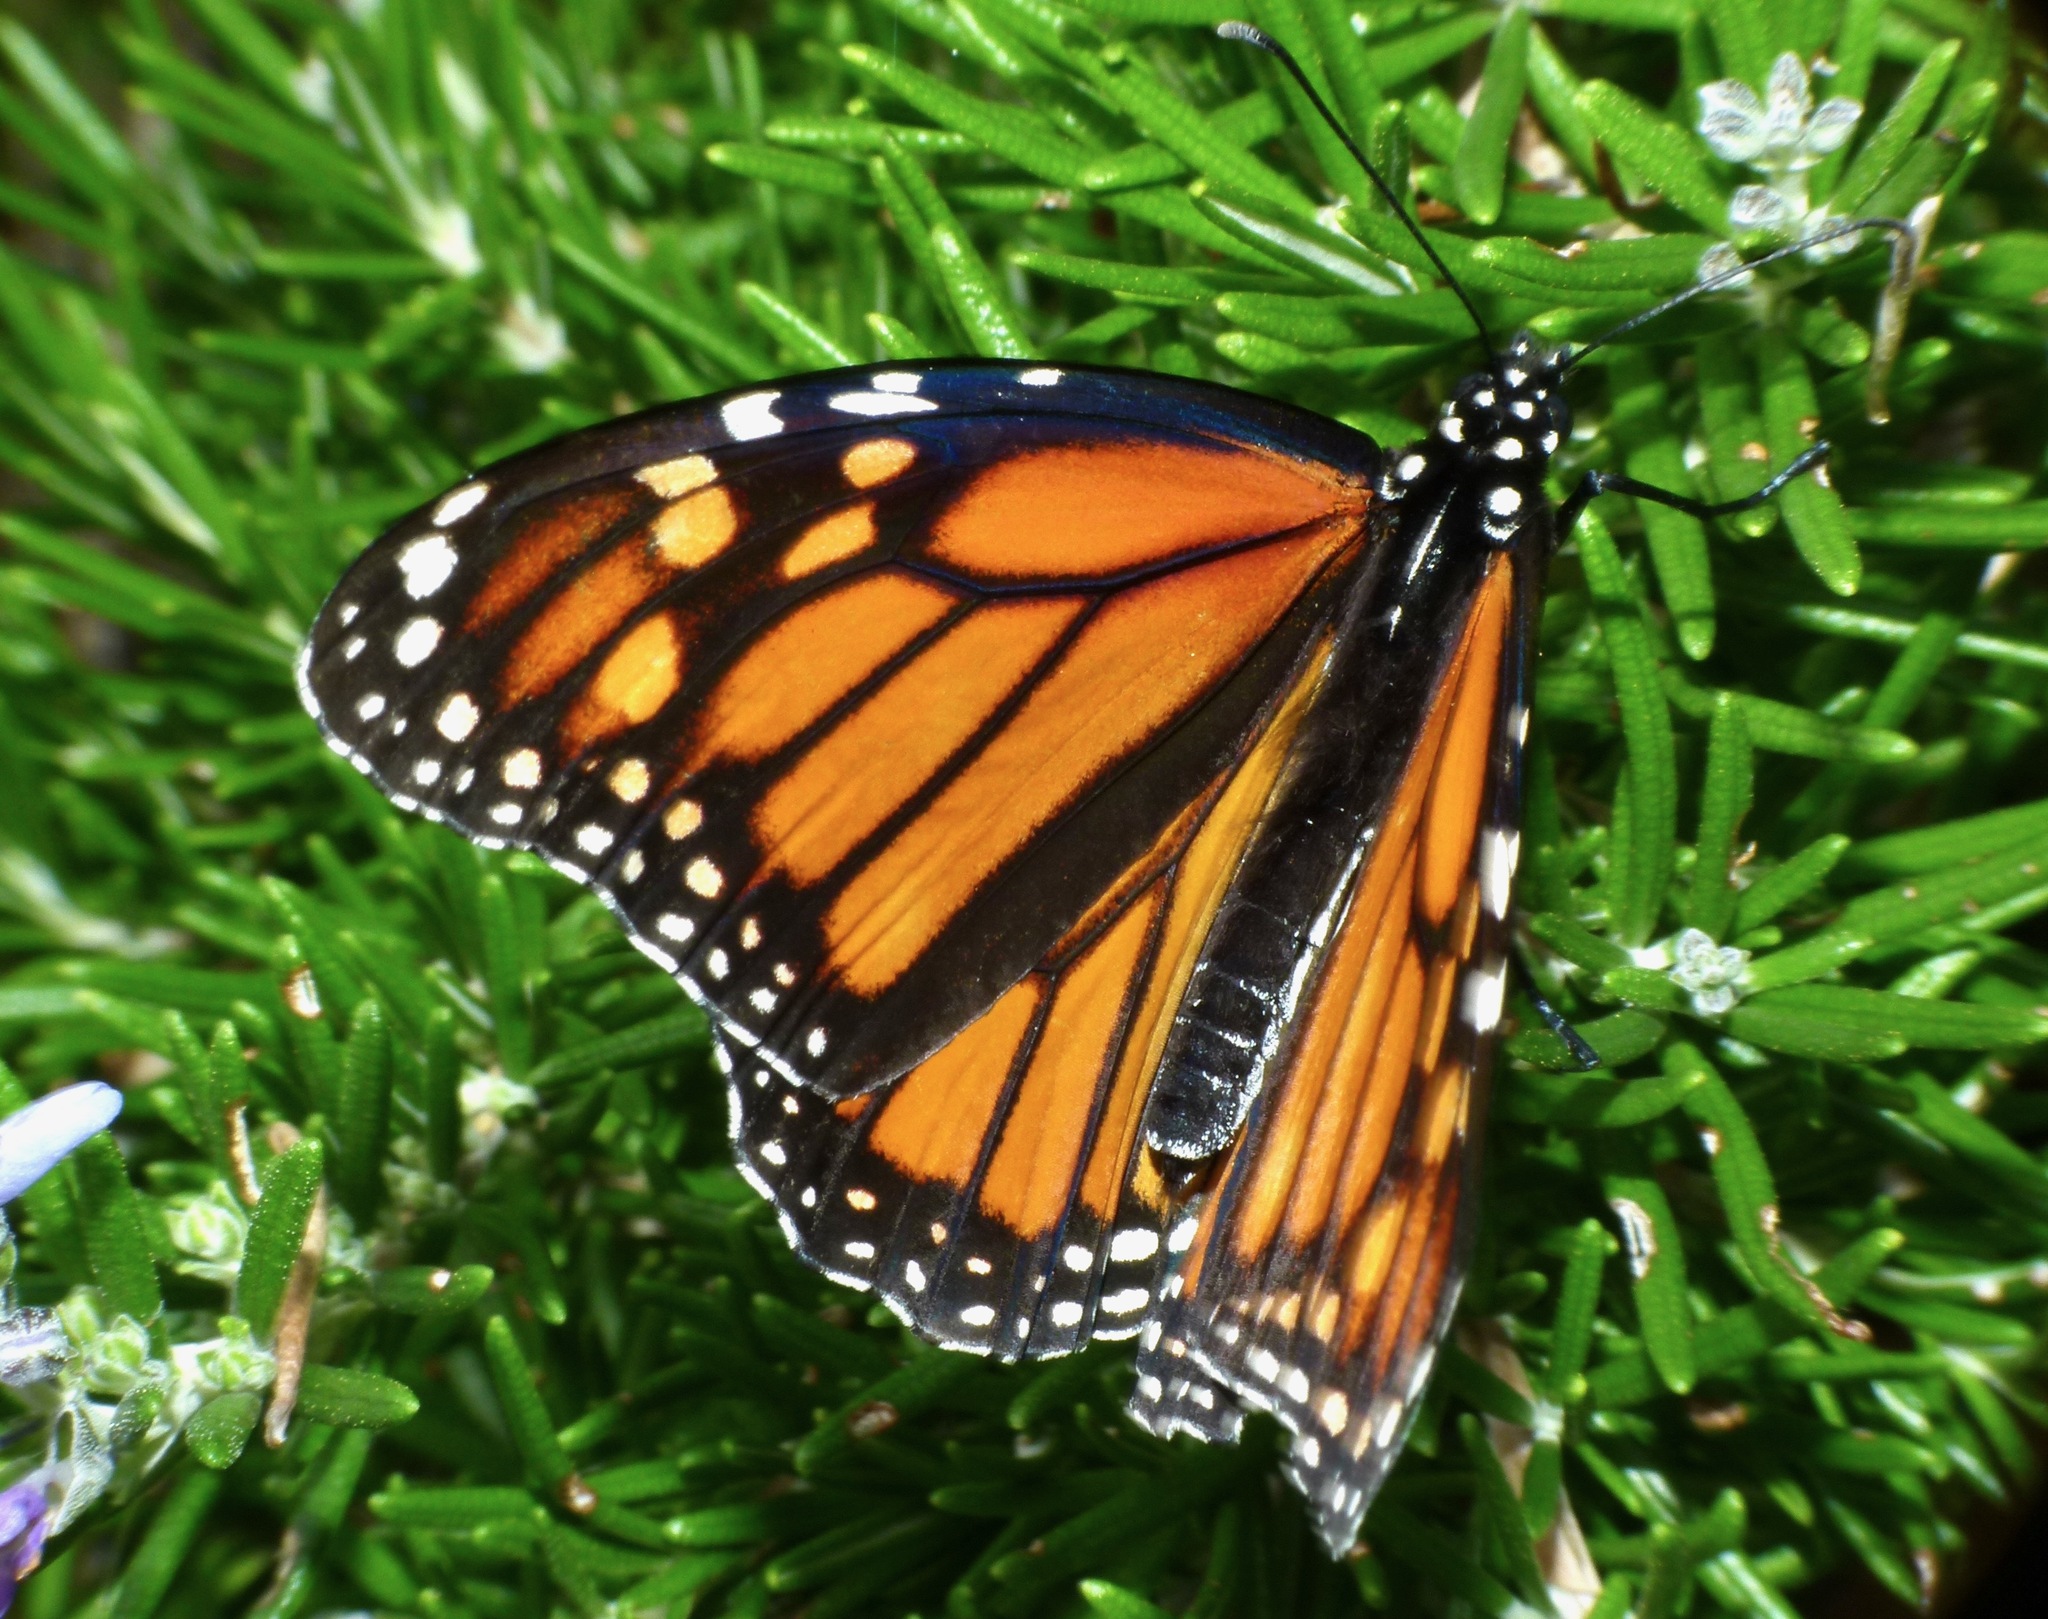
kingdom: Animalia
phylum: Arthropoda
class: Insecta
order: Lepidoptera
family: Nymphalidae
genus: Danaus
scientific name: Danaus plexippus
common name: Monarch
